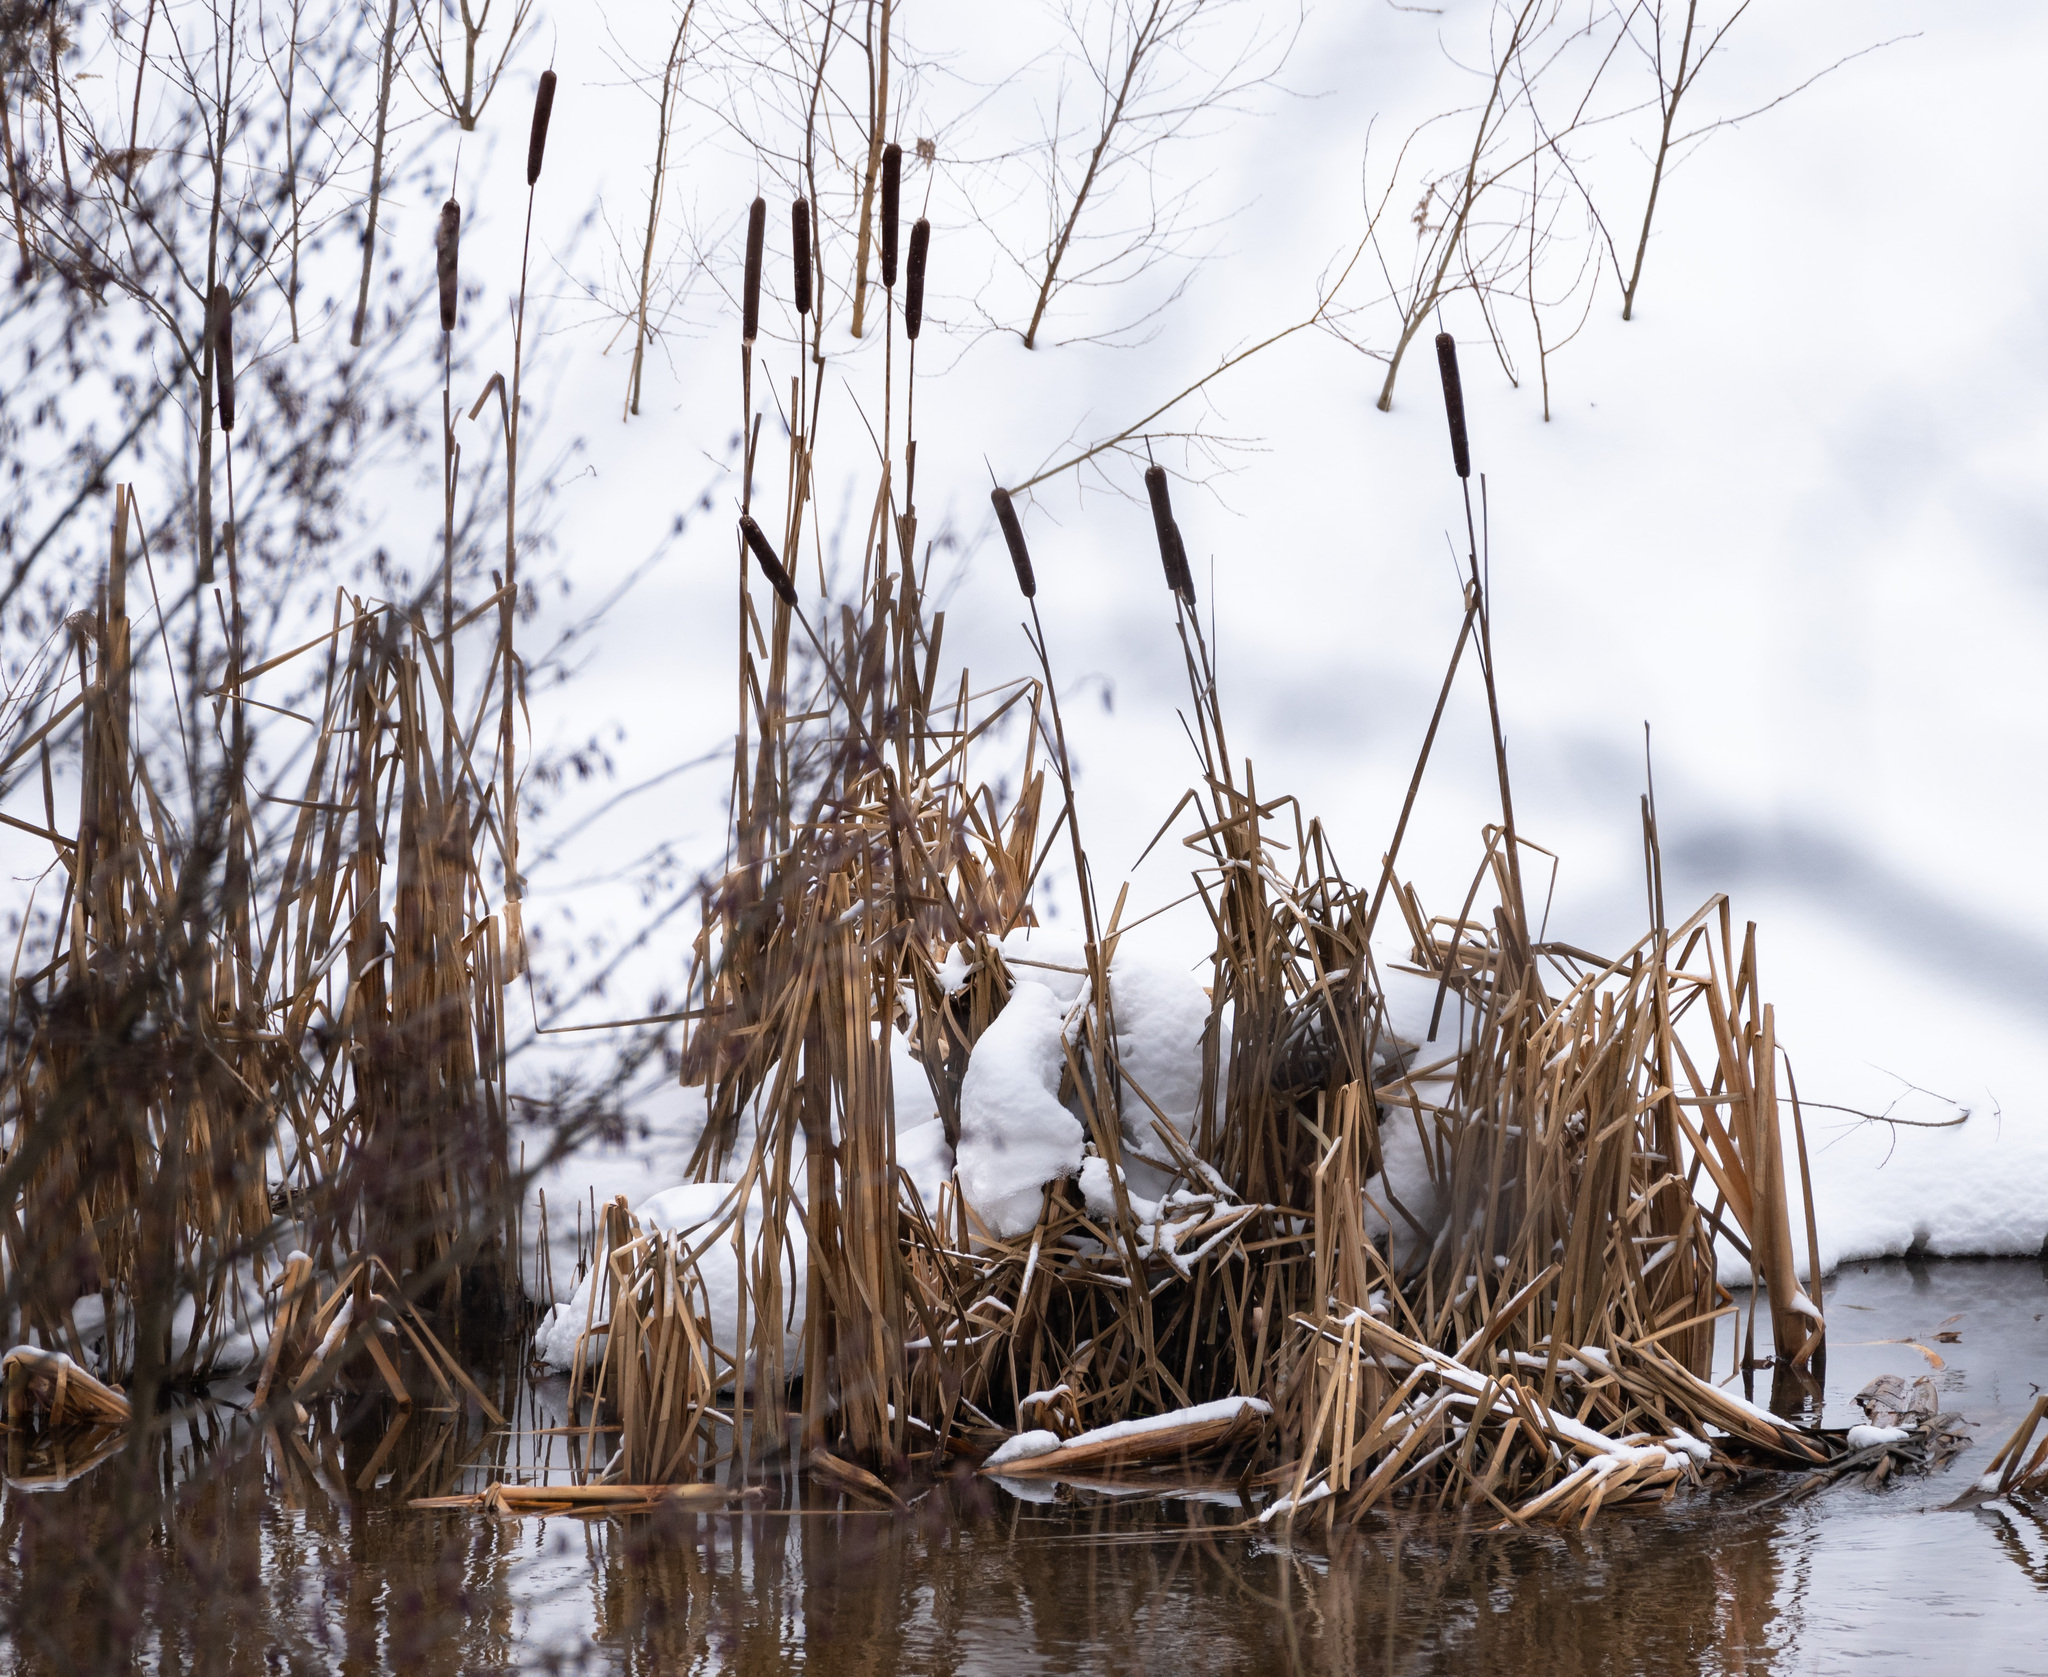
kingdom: Plantae
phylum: Tracheophyta
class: Liliopsida
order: Poales
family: Typhaceae
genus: Typha
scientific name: Typha latifolia
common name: Broadleaf cattail
